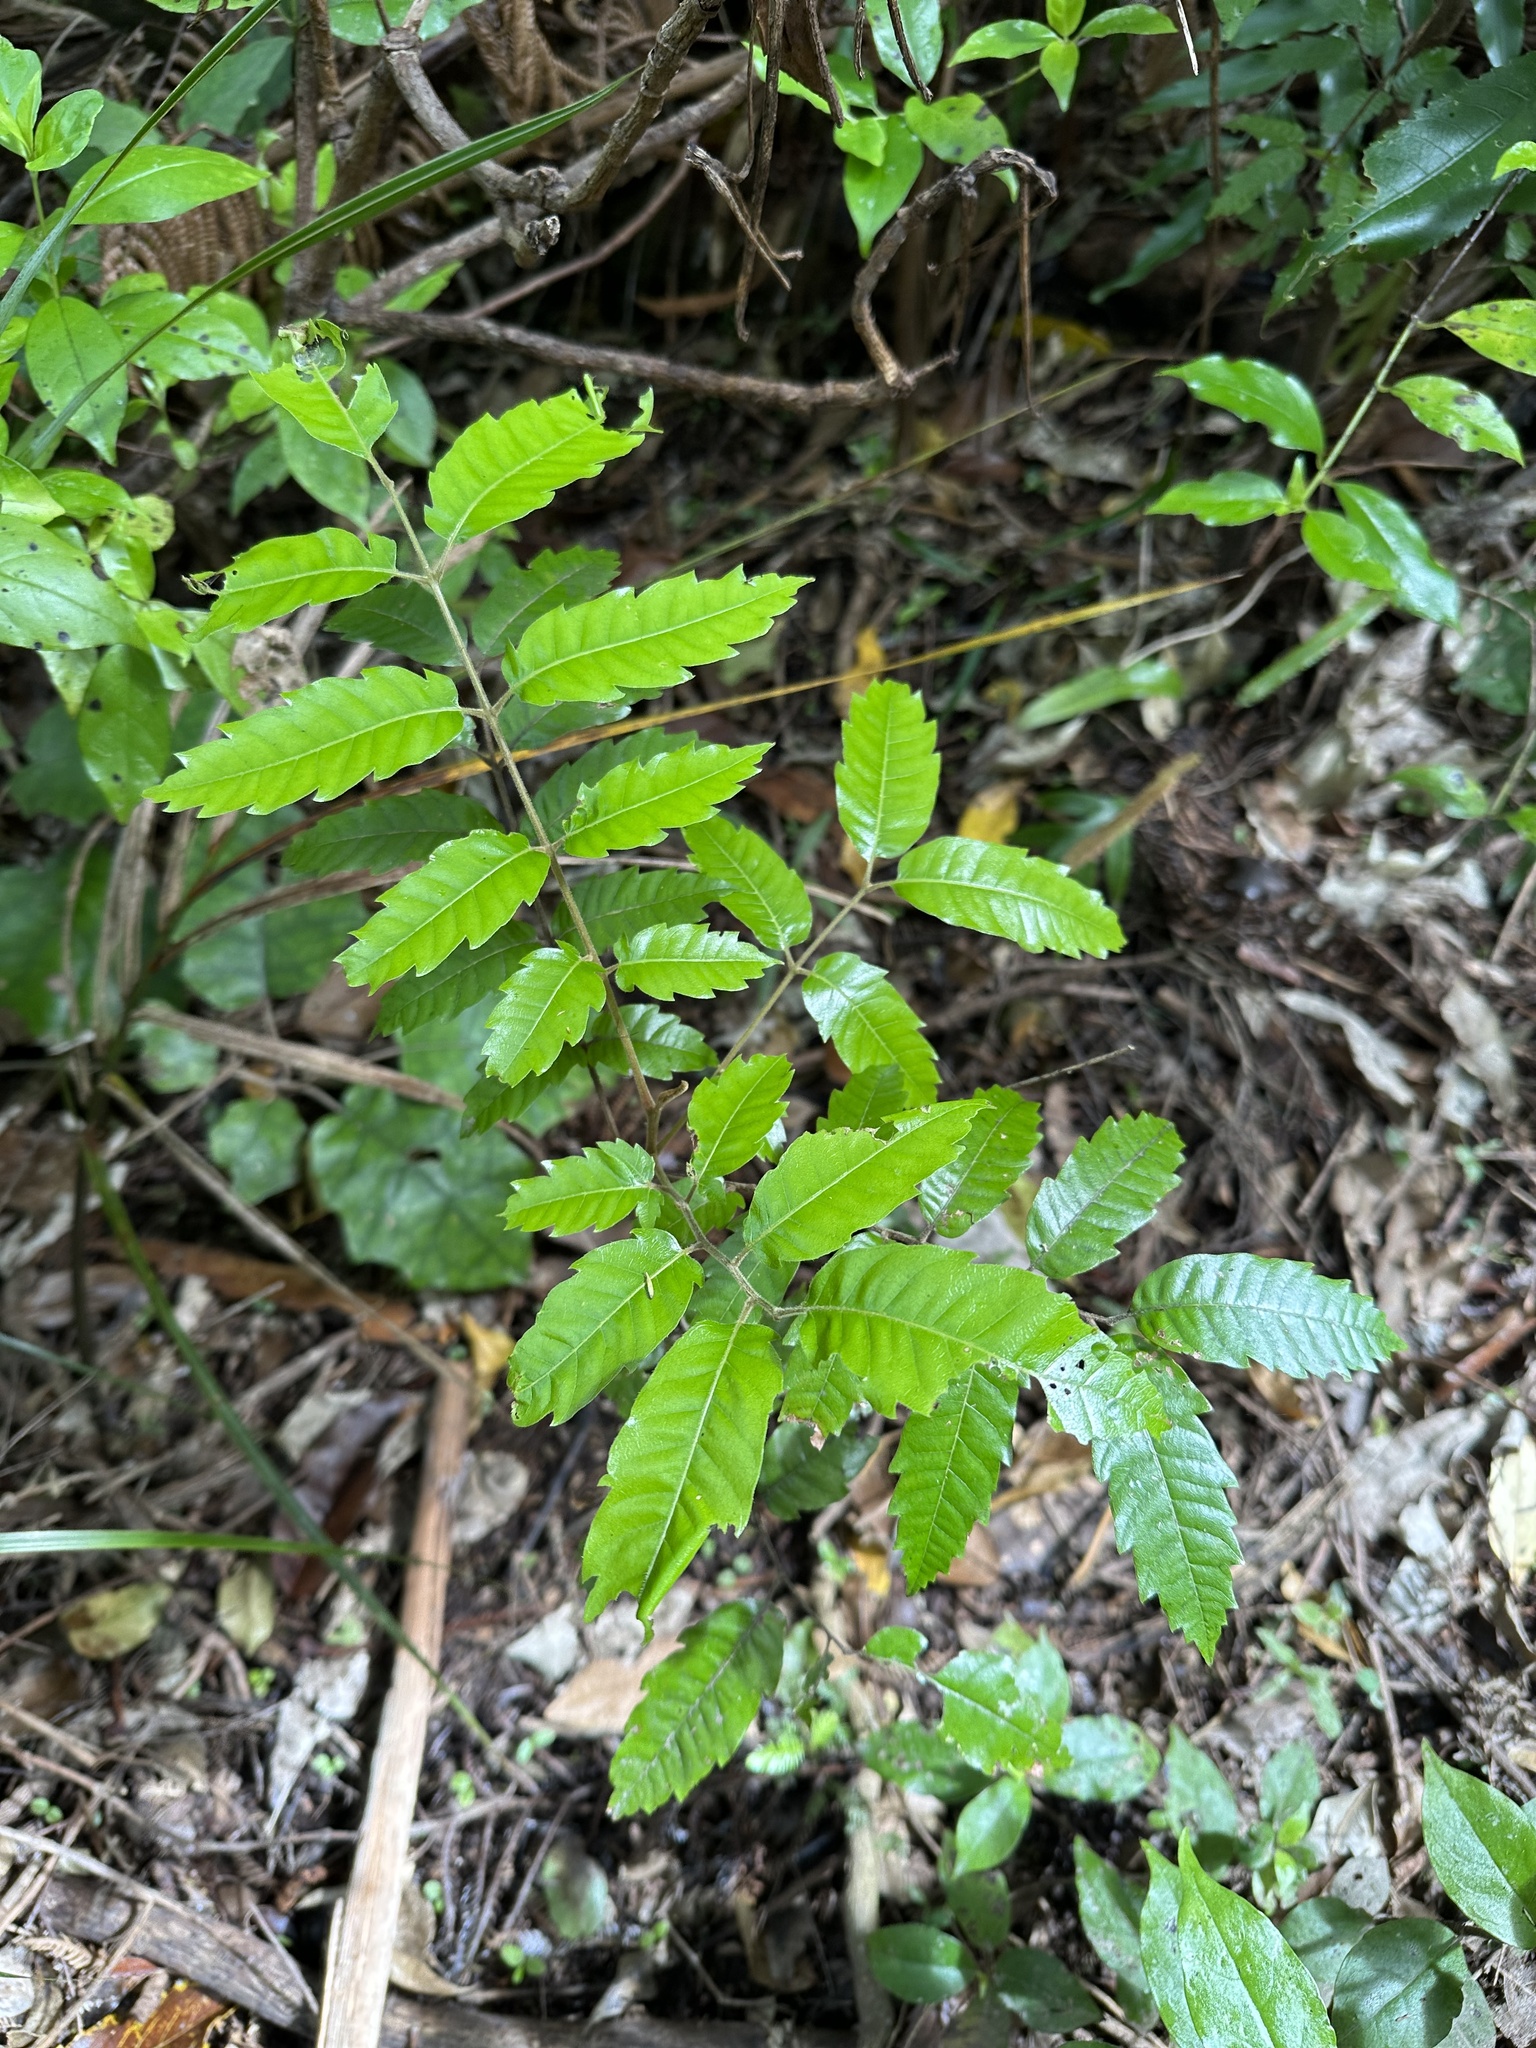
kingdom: Plantae
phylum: Tracheophyta
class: Magnoliopsida
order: Sapindales
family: Sapindaceae
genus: Alectryon
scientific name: Alectryon excelsus
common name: Three kings titoki
